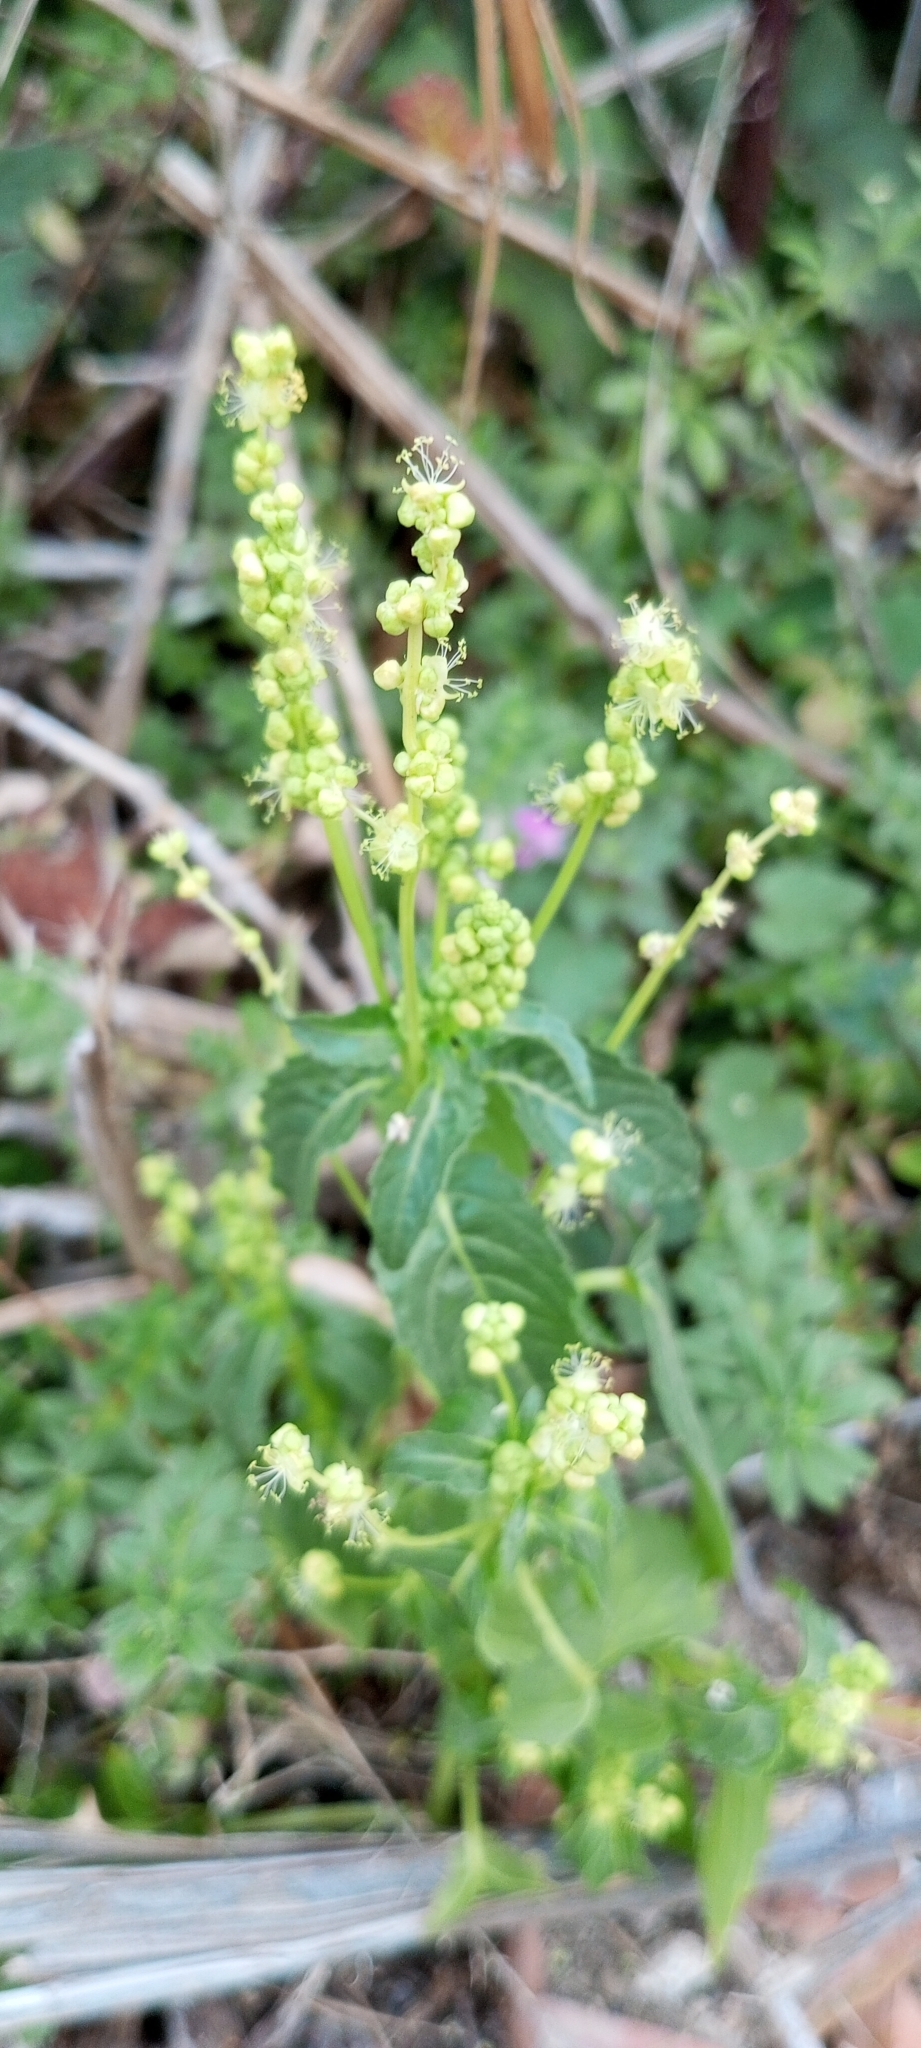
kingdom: Plantae
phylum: Tracheophyta
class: Magnoliopsida
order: Malpighiales
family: Euphorbiaceae
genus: Mercurialis
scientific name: Mercurialis annua
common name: Annual mercury
